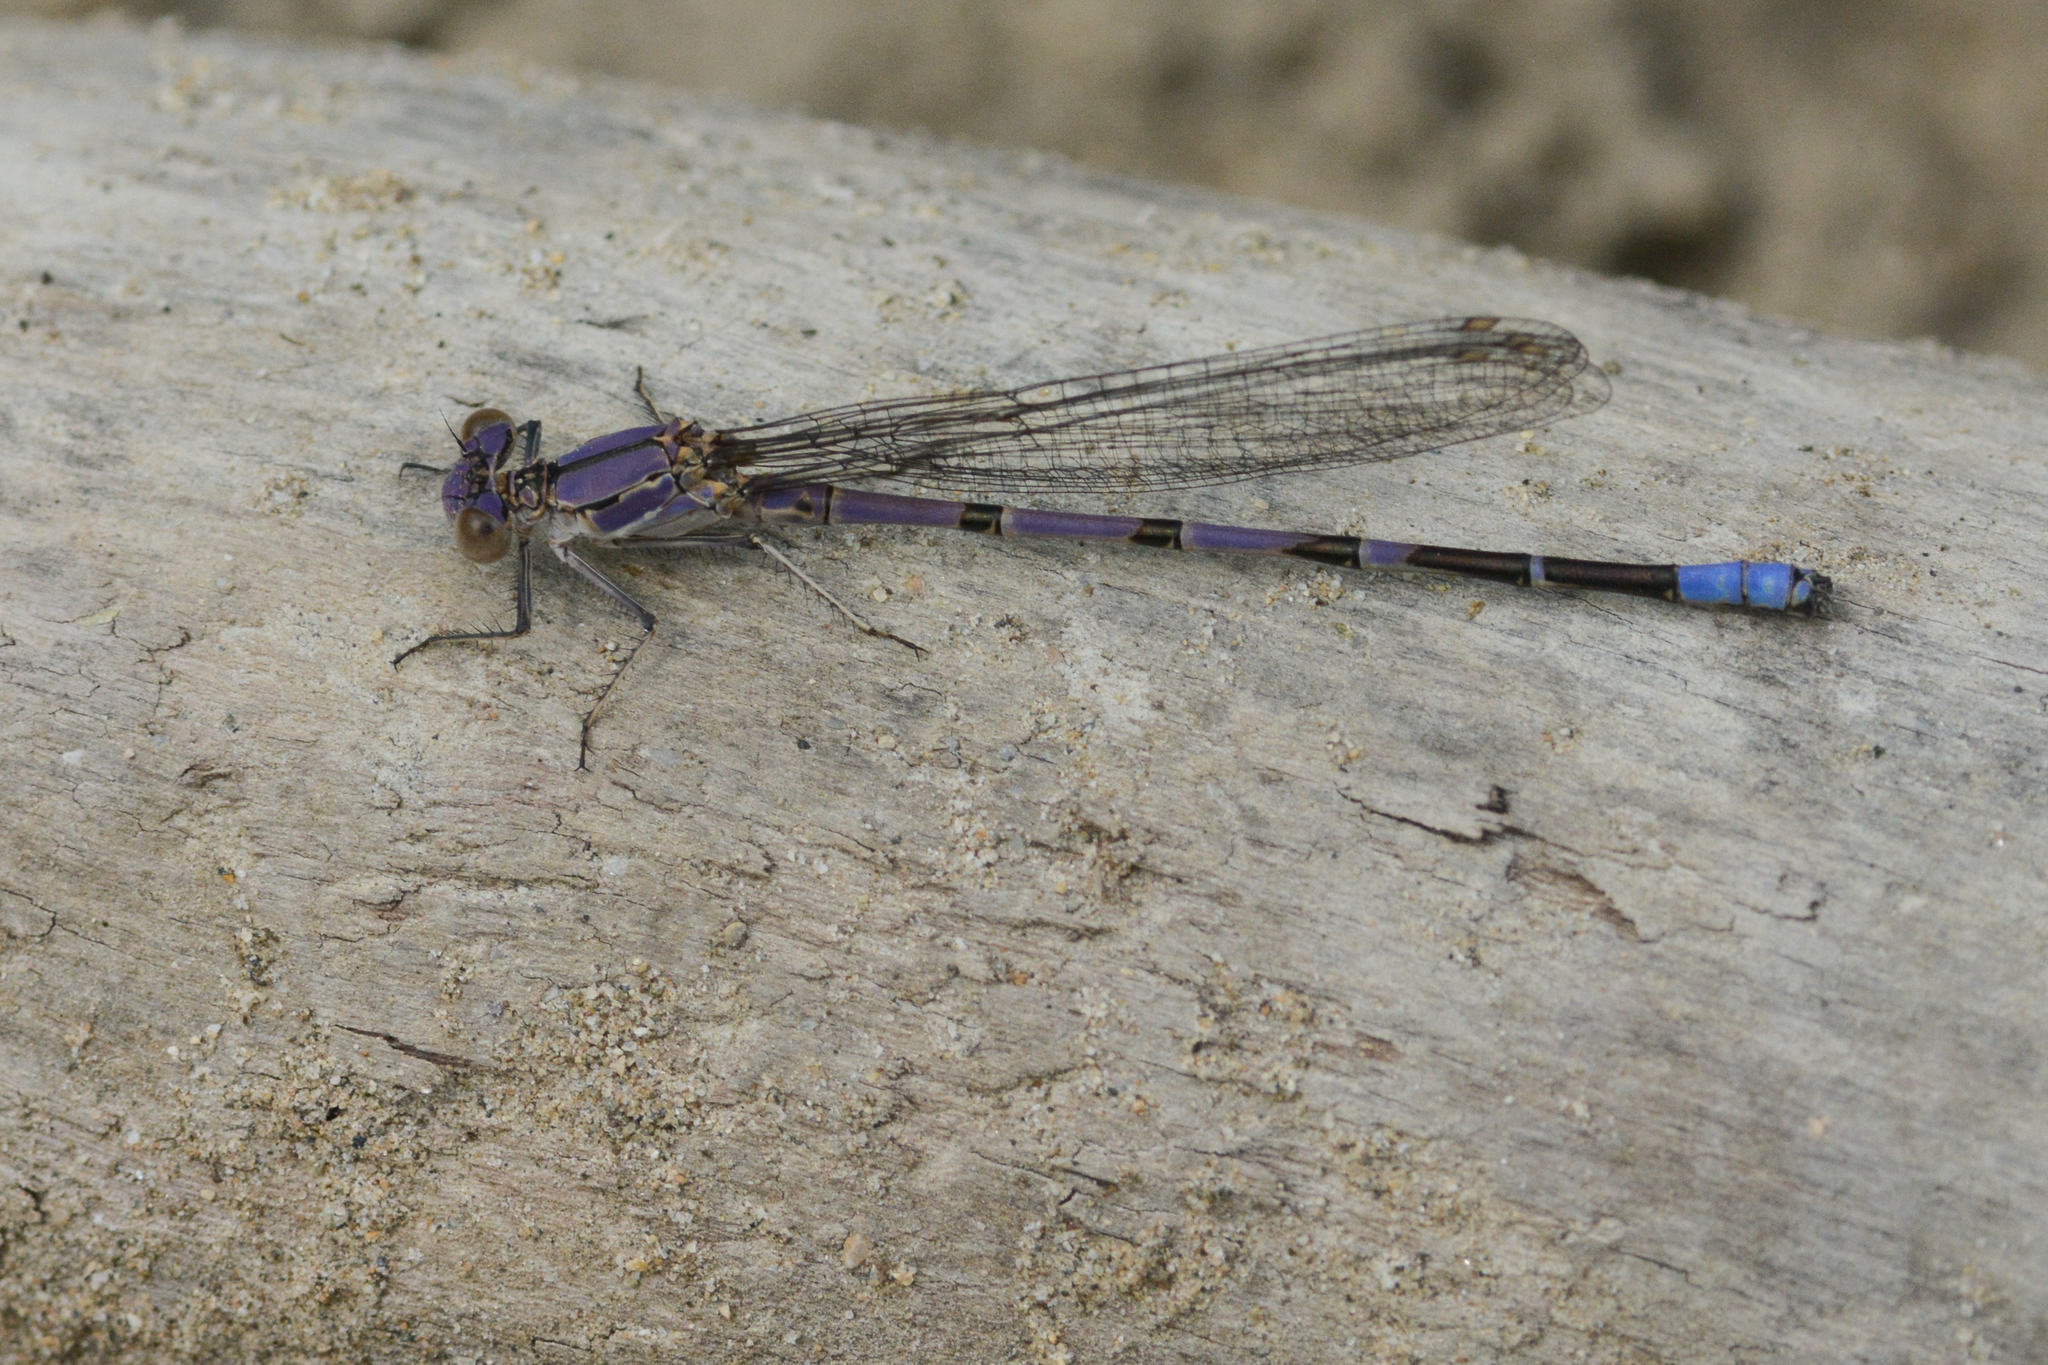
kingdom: Animalia
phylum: Arthropoda
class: Insecta
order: Odonata
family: Coenagrionidae
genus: Argia
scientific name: Argia emma
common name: Emma's dancer
